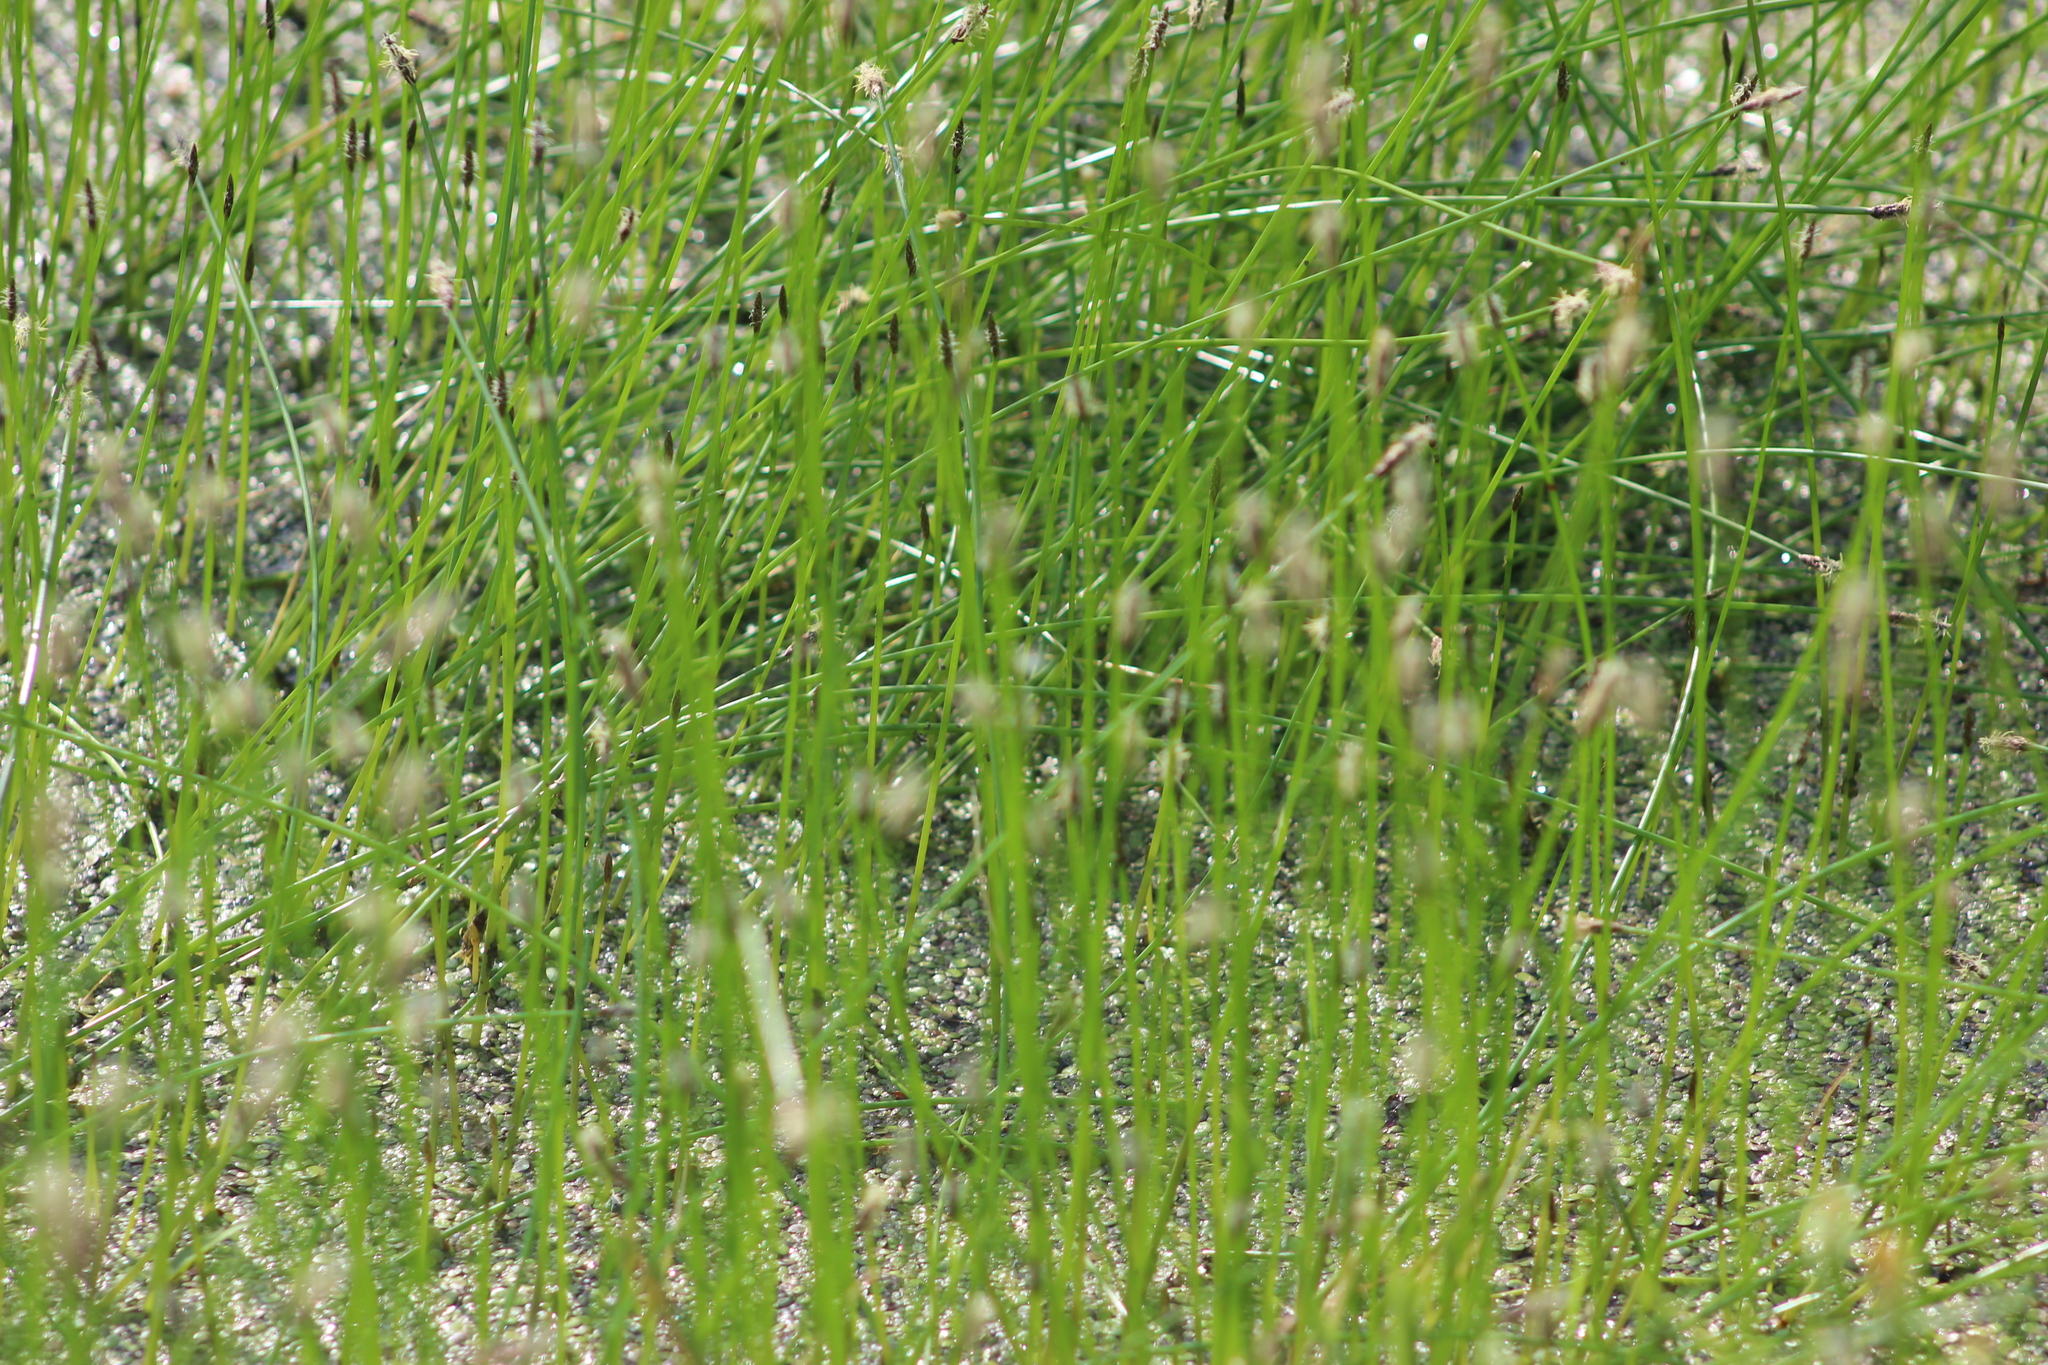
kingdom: Plantae
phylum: Tracheophyta
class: Liliopsida
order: Poales
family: Cyperaceae
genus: Eleocharis
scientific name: Eleocharis palustris
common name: Common spike-rush
